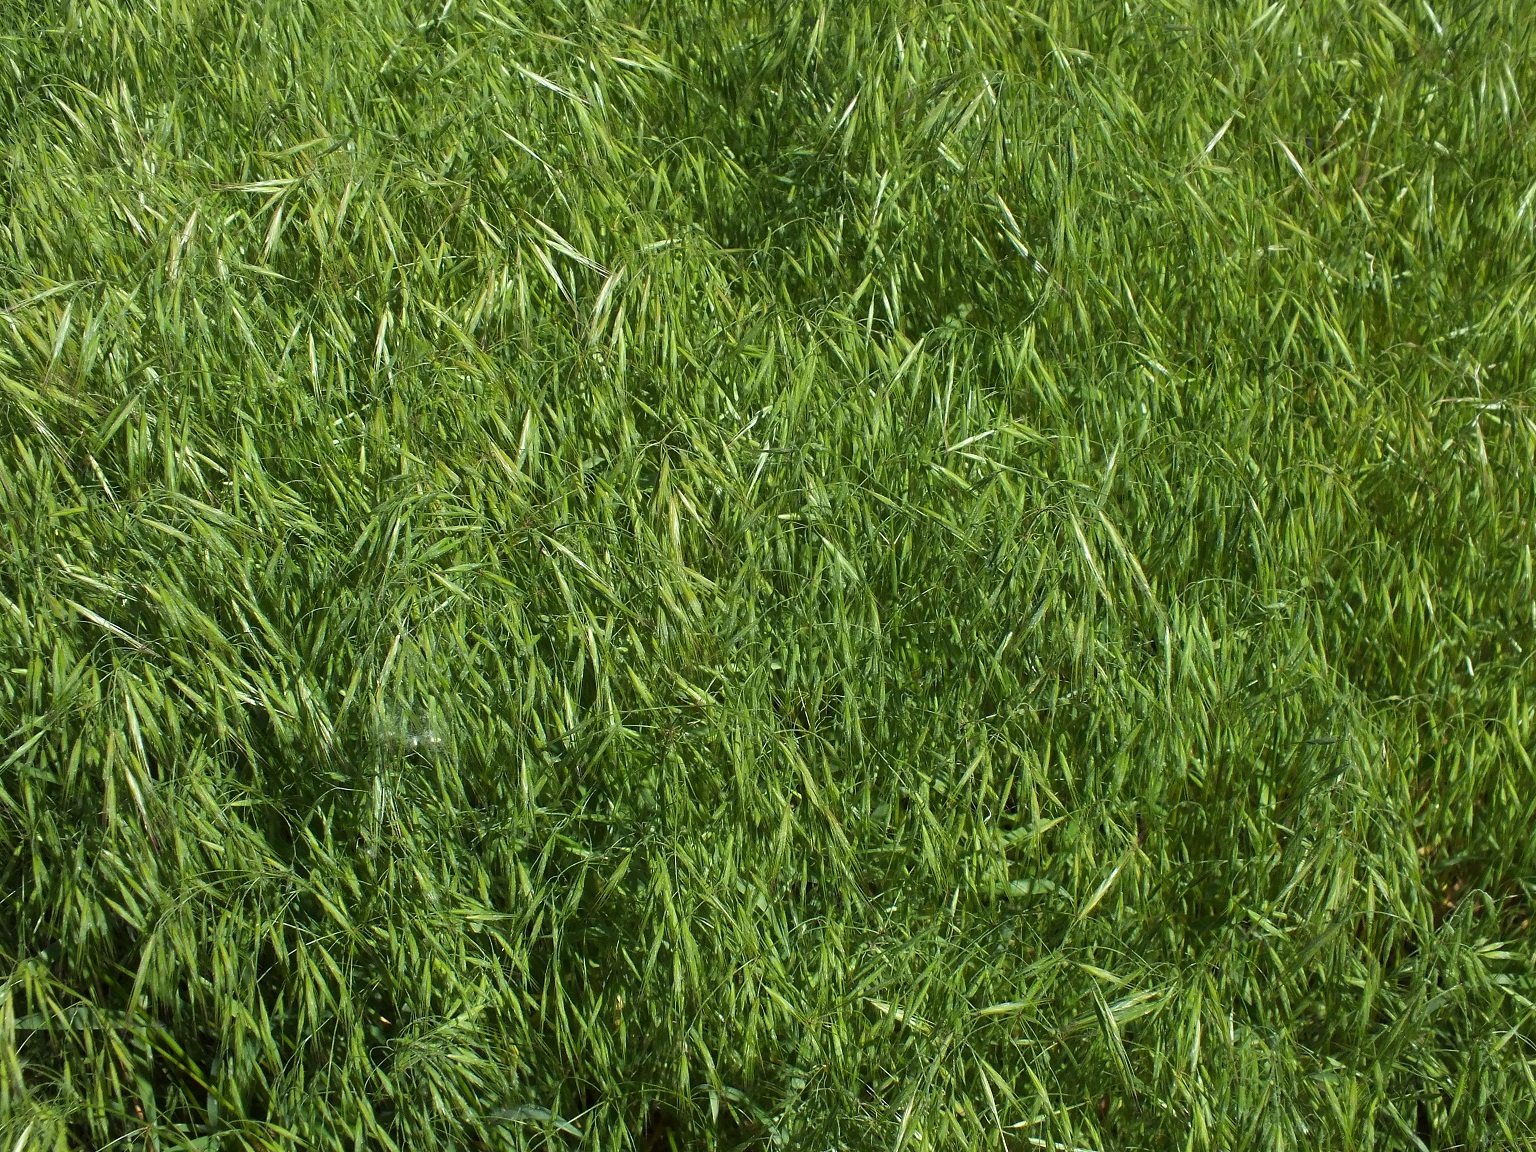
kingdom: Plantae
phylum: Tracheophyta
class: Liliopsida
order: Poales
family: Poaceae
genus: Bromus
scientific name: Bromus tectorum
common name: Cheatgrass
